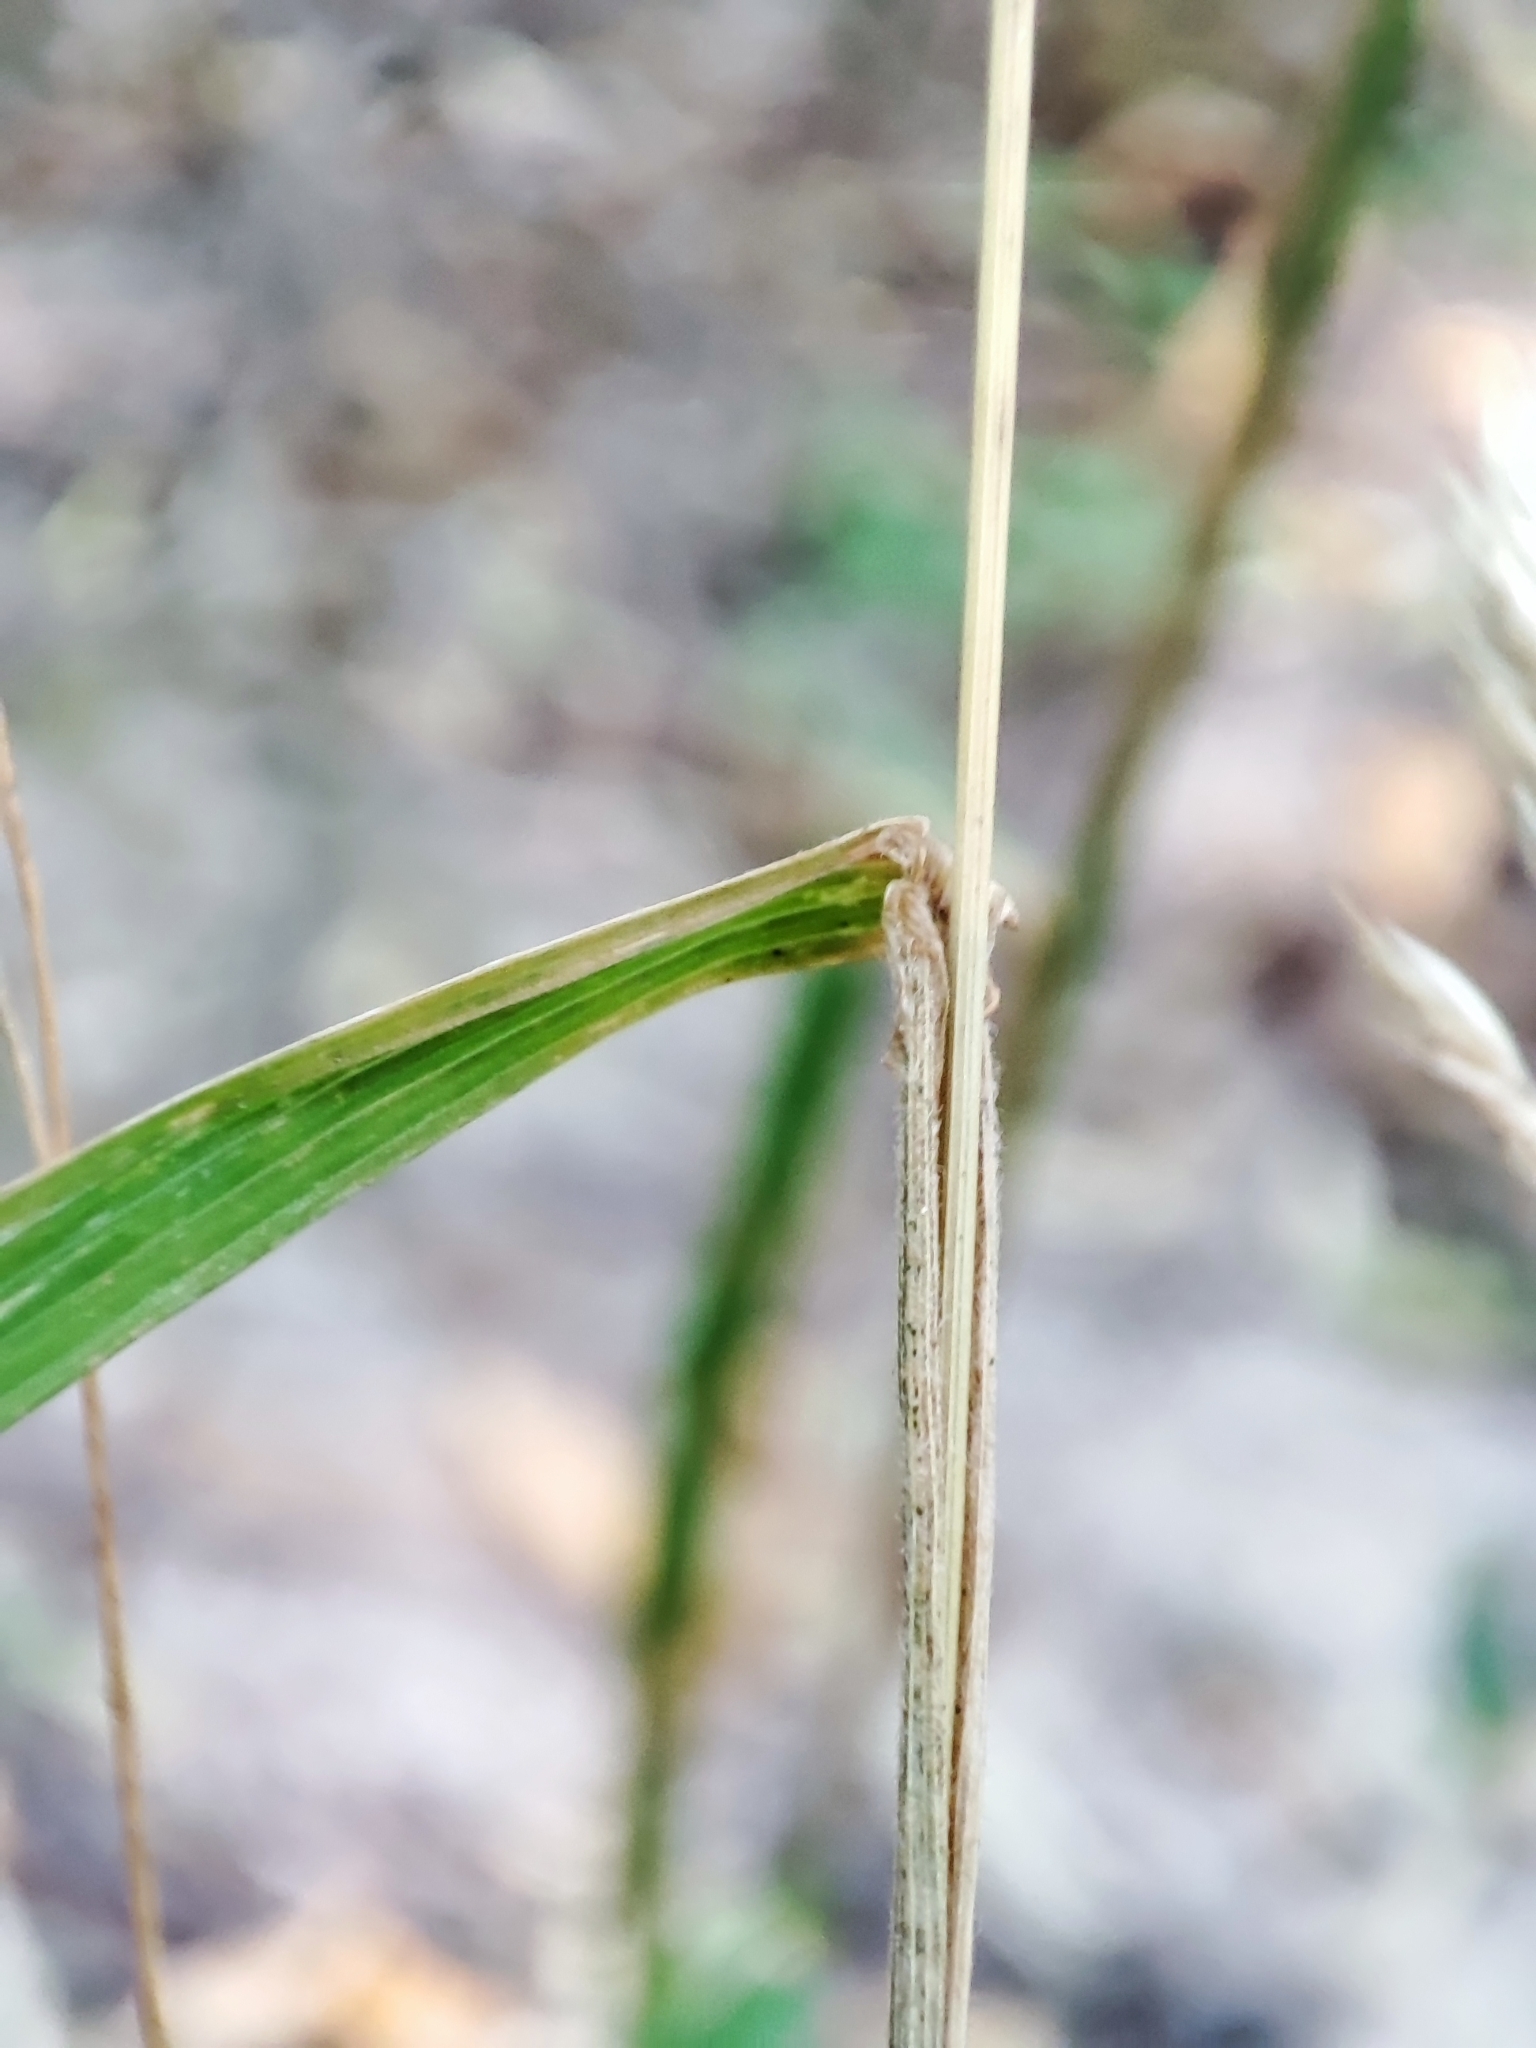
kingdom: Plantae
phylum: Tracheophyta
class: Liliopsida
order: Poales
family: Poaceae
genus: Dactylis
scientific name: Dactylis glomerata
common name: Orchardgrass
